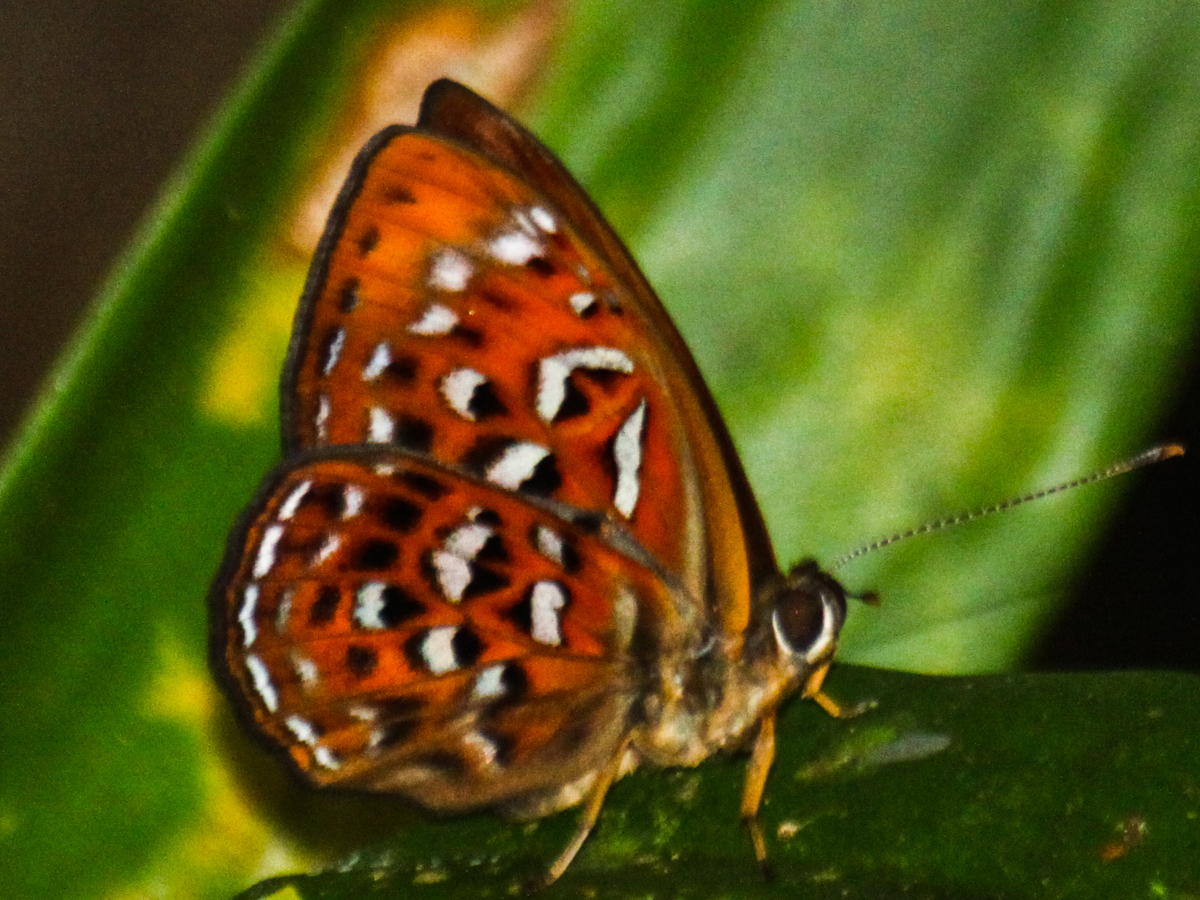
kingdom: Animalia
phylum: Arthropoda
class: Insecta
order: Lepidoptera
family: Erebidae
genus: Dysschema
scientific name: Dysschema
